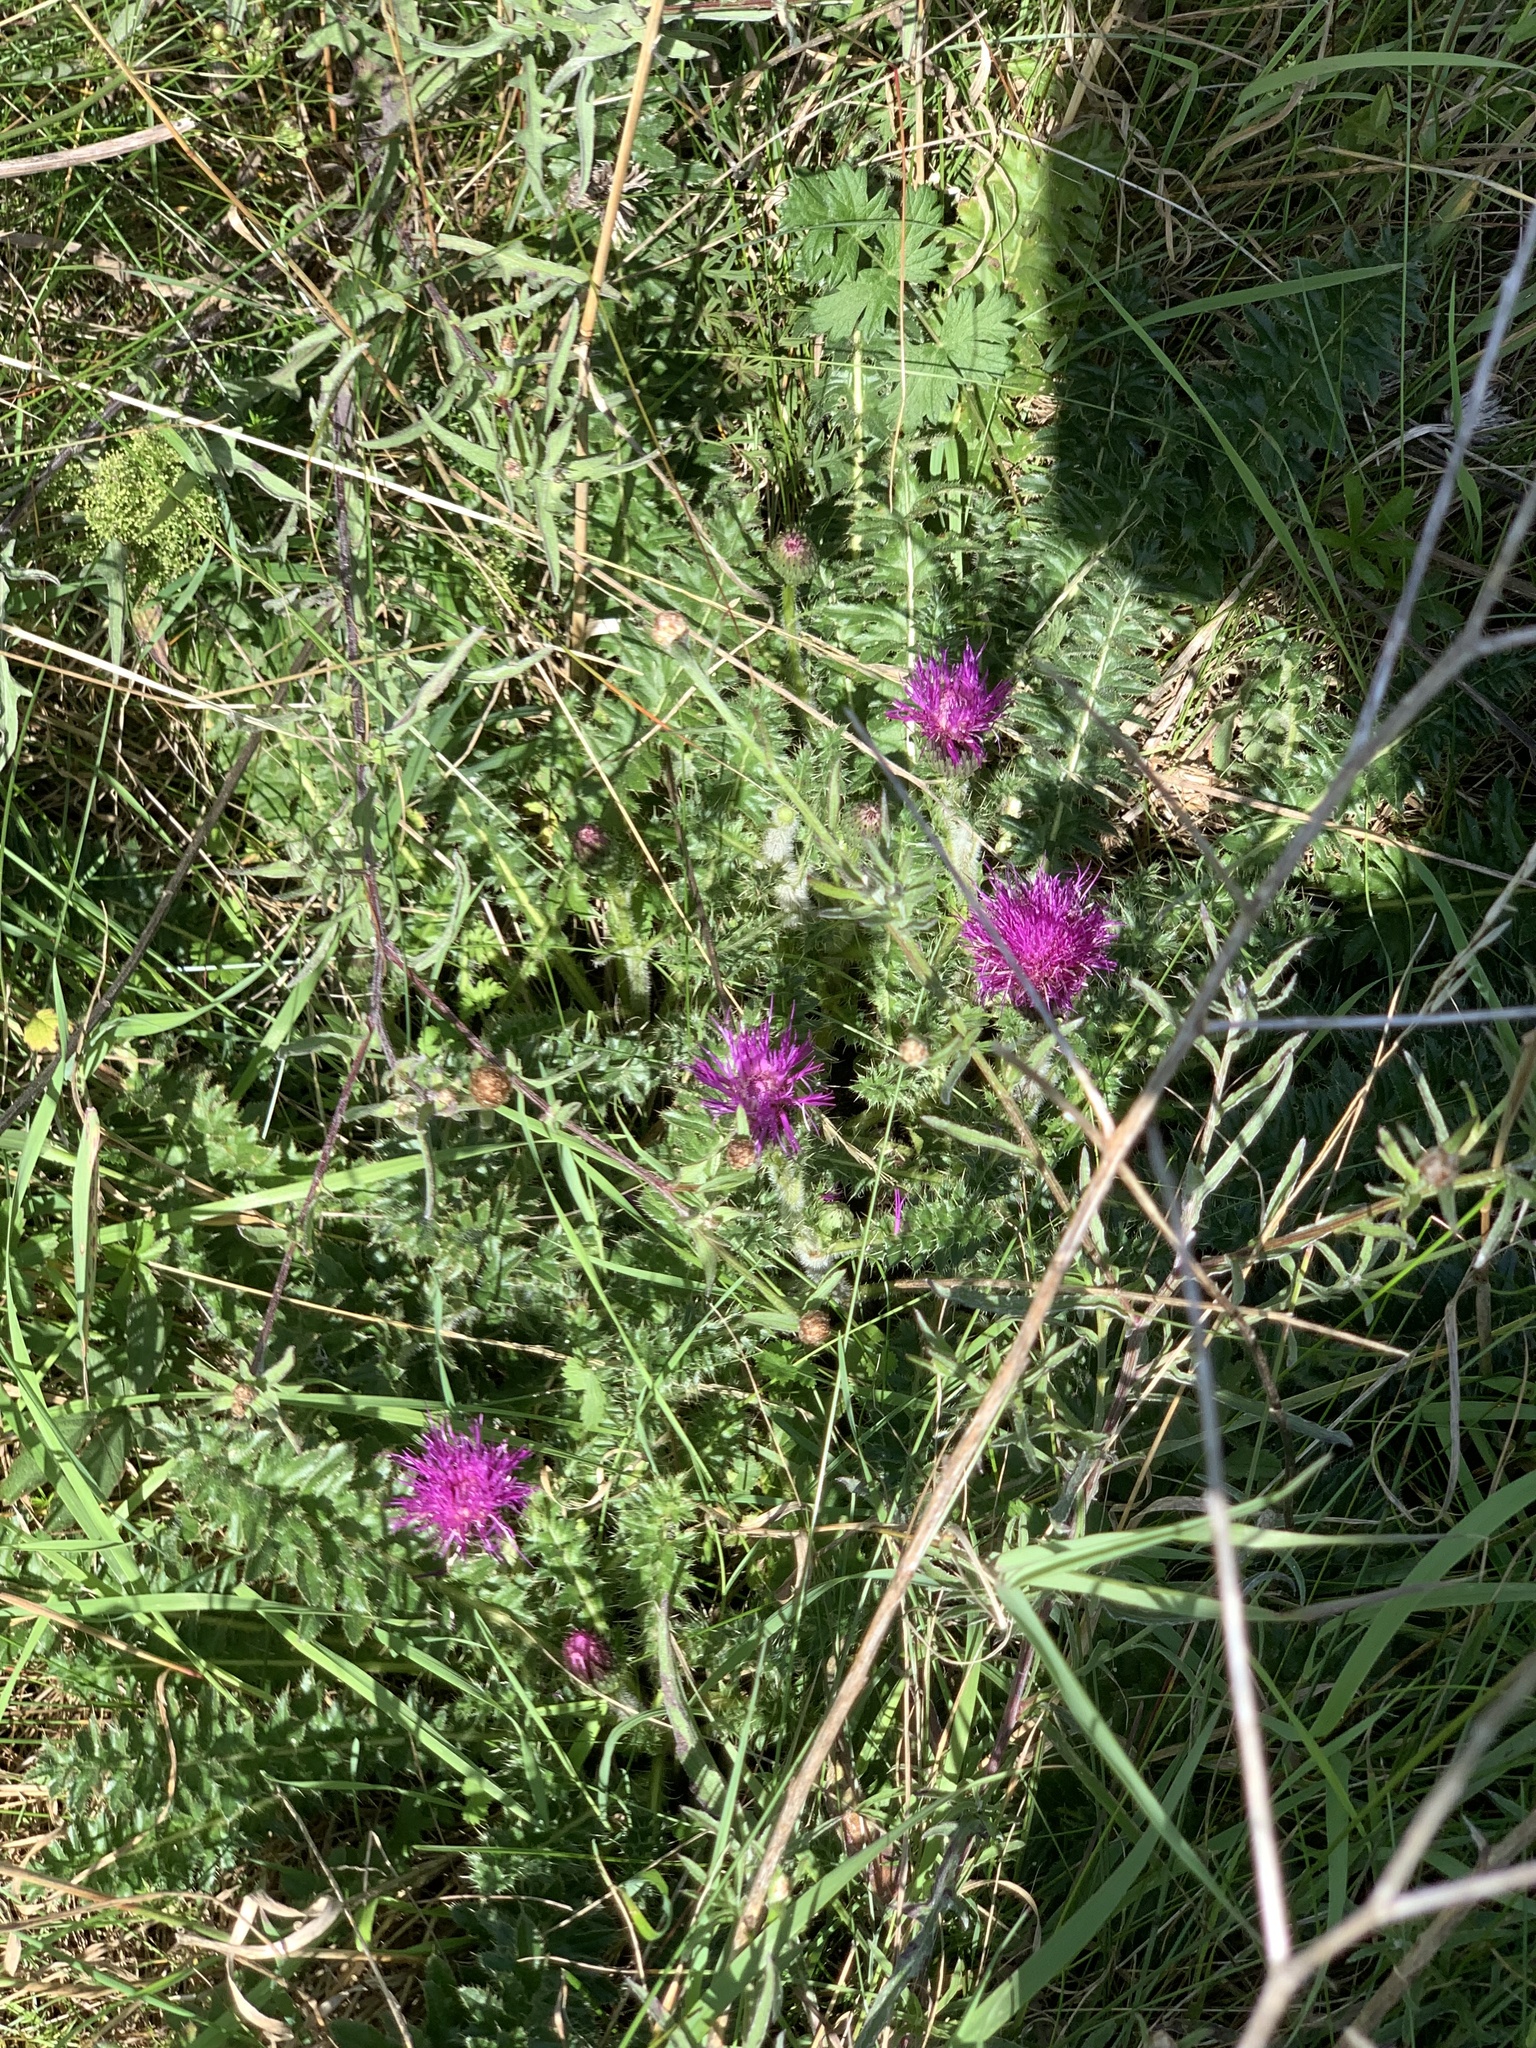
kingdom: Plantae
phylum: Tracheophyta
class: Magnoliopsida
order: Asterales
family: Asteraceae
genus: Cirsium
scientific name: Cirsium acaulon
